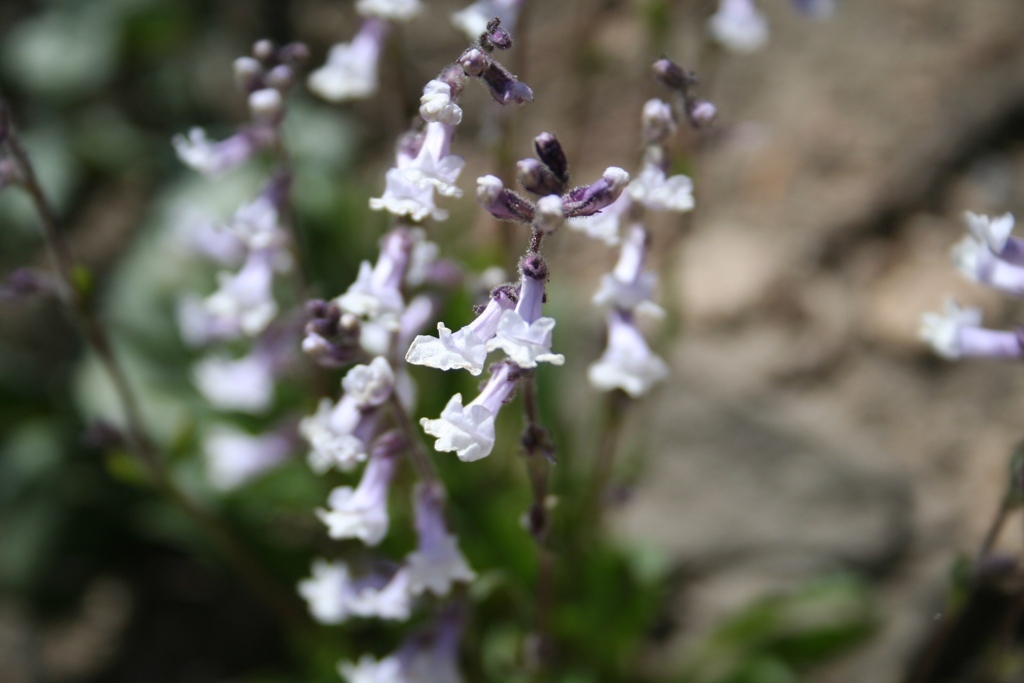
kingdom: Plantae
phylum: Tracheophyta
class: Magnoliopsida
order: Lamiales
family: Plantaginaceae
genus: Chionophila
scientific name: Chionophila tweedyi
